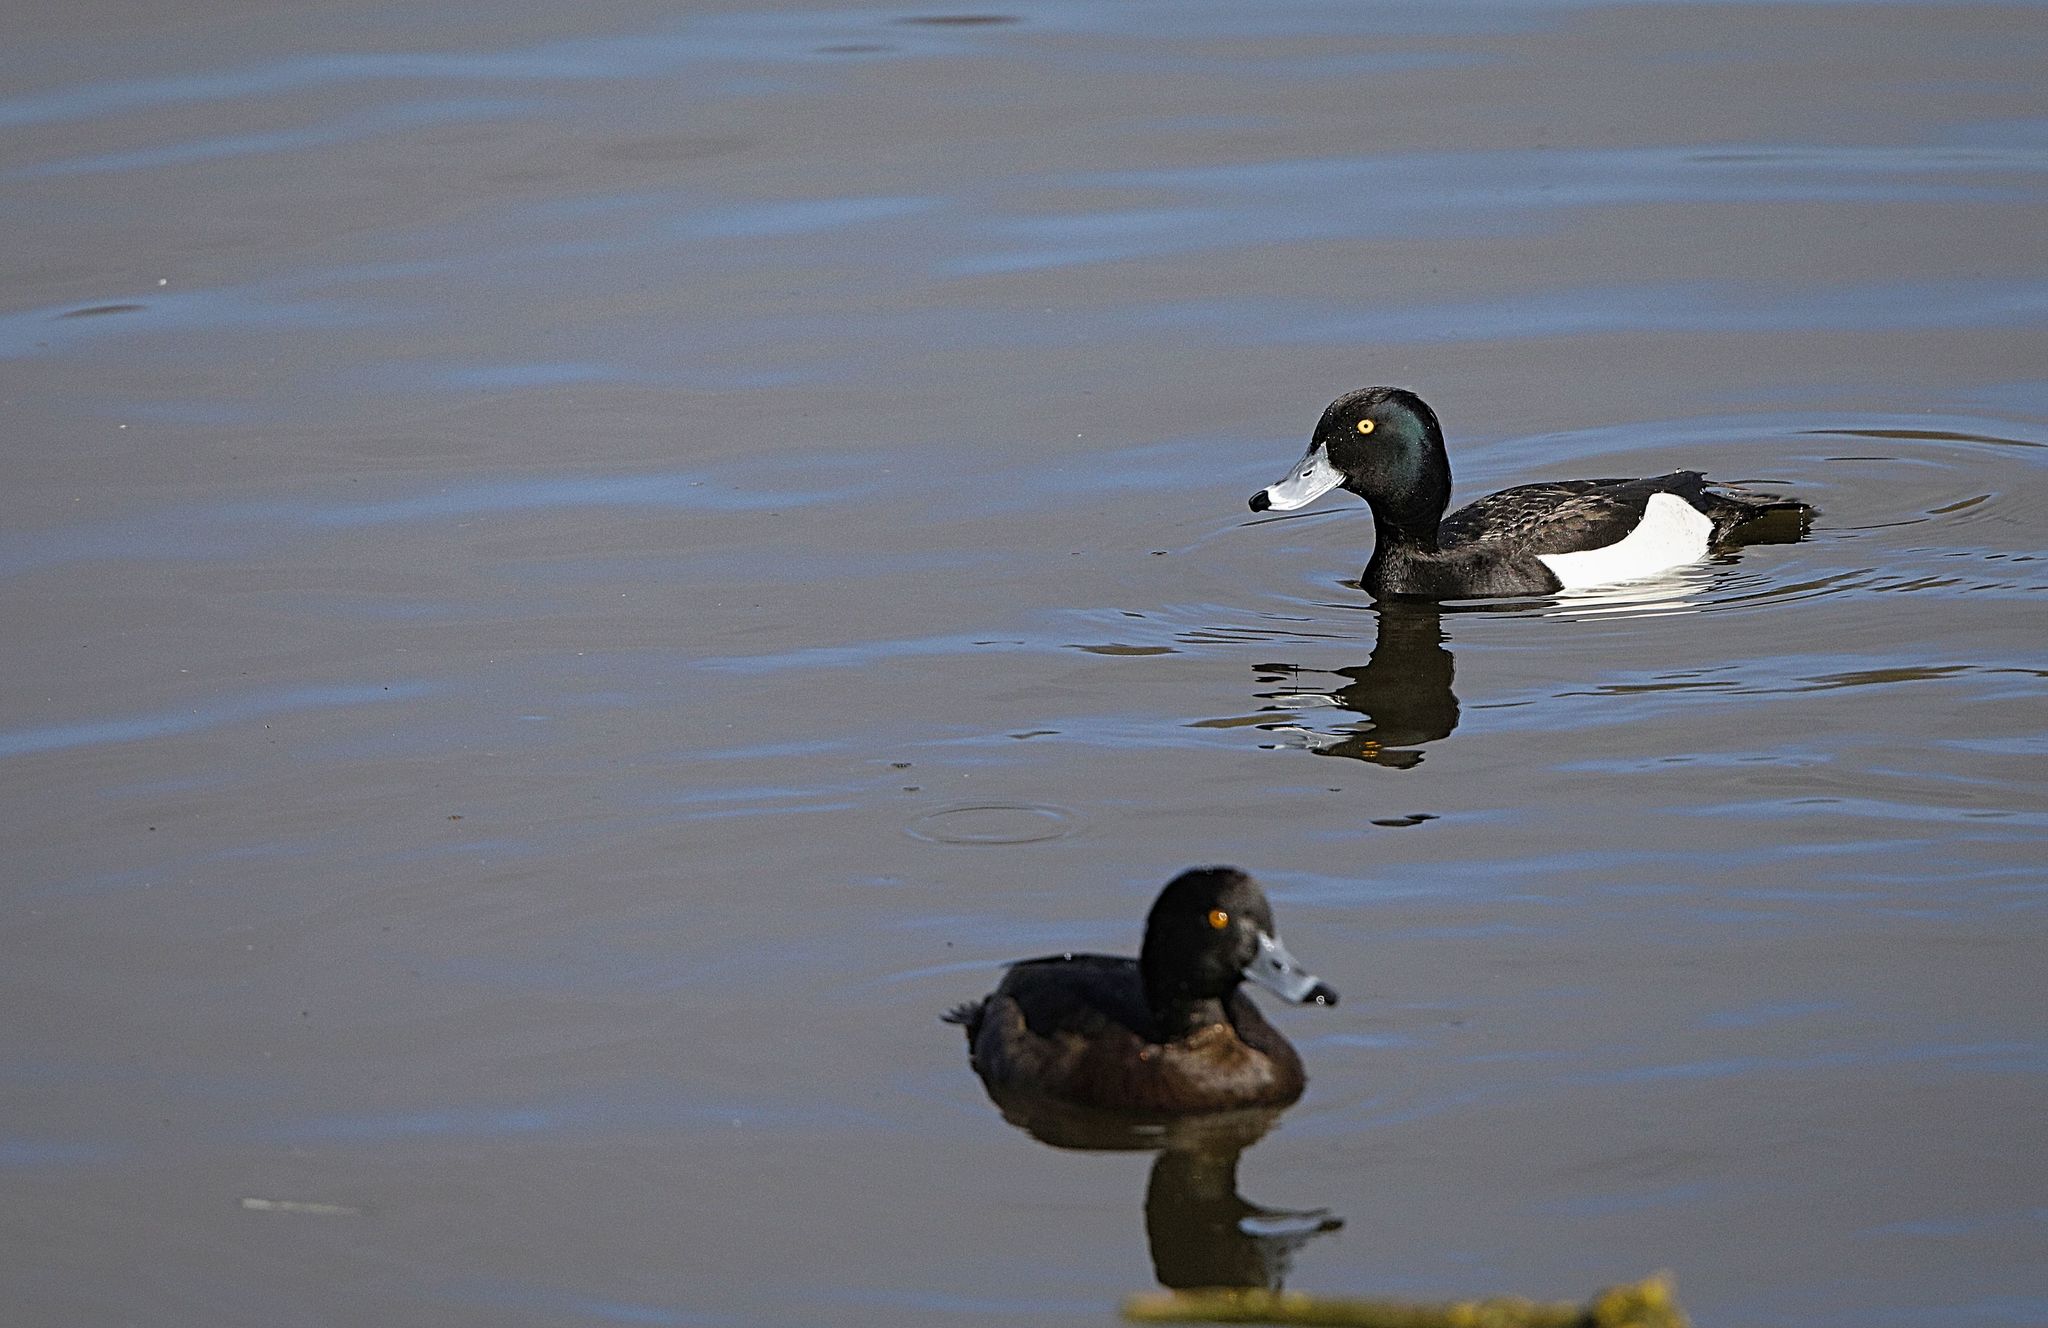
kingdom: Animalia
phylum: Chordata
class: Aves
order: Anseriformes
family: Anatidae
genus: Aythya
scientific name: Aythya fuligula
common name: Tufted duck
